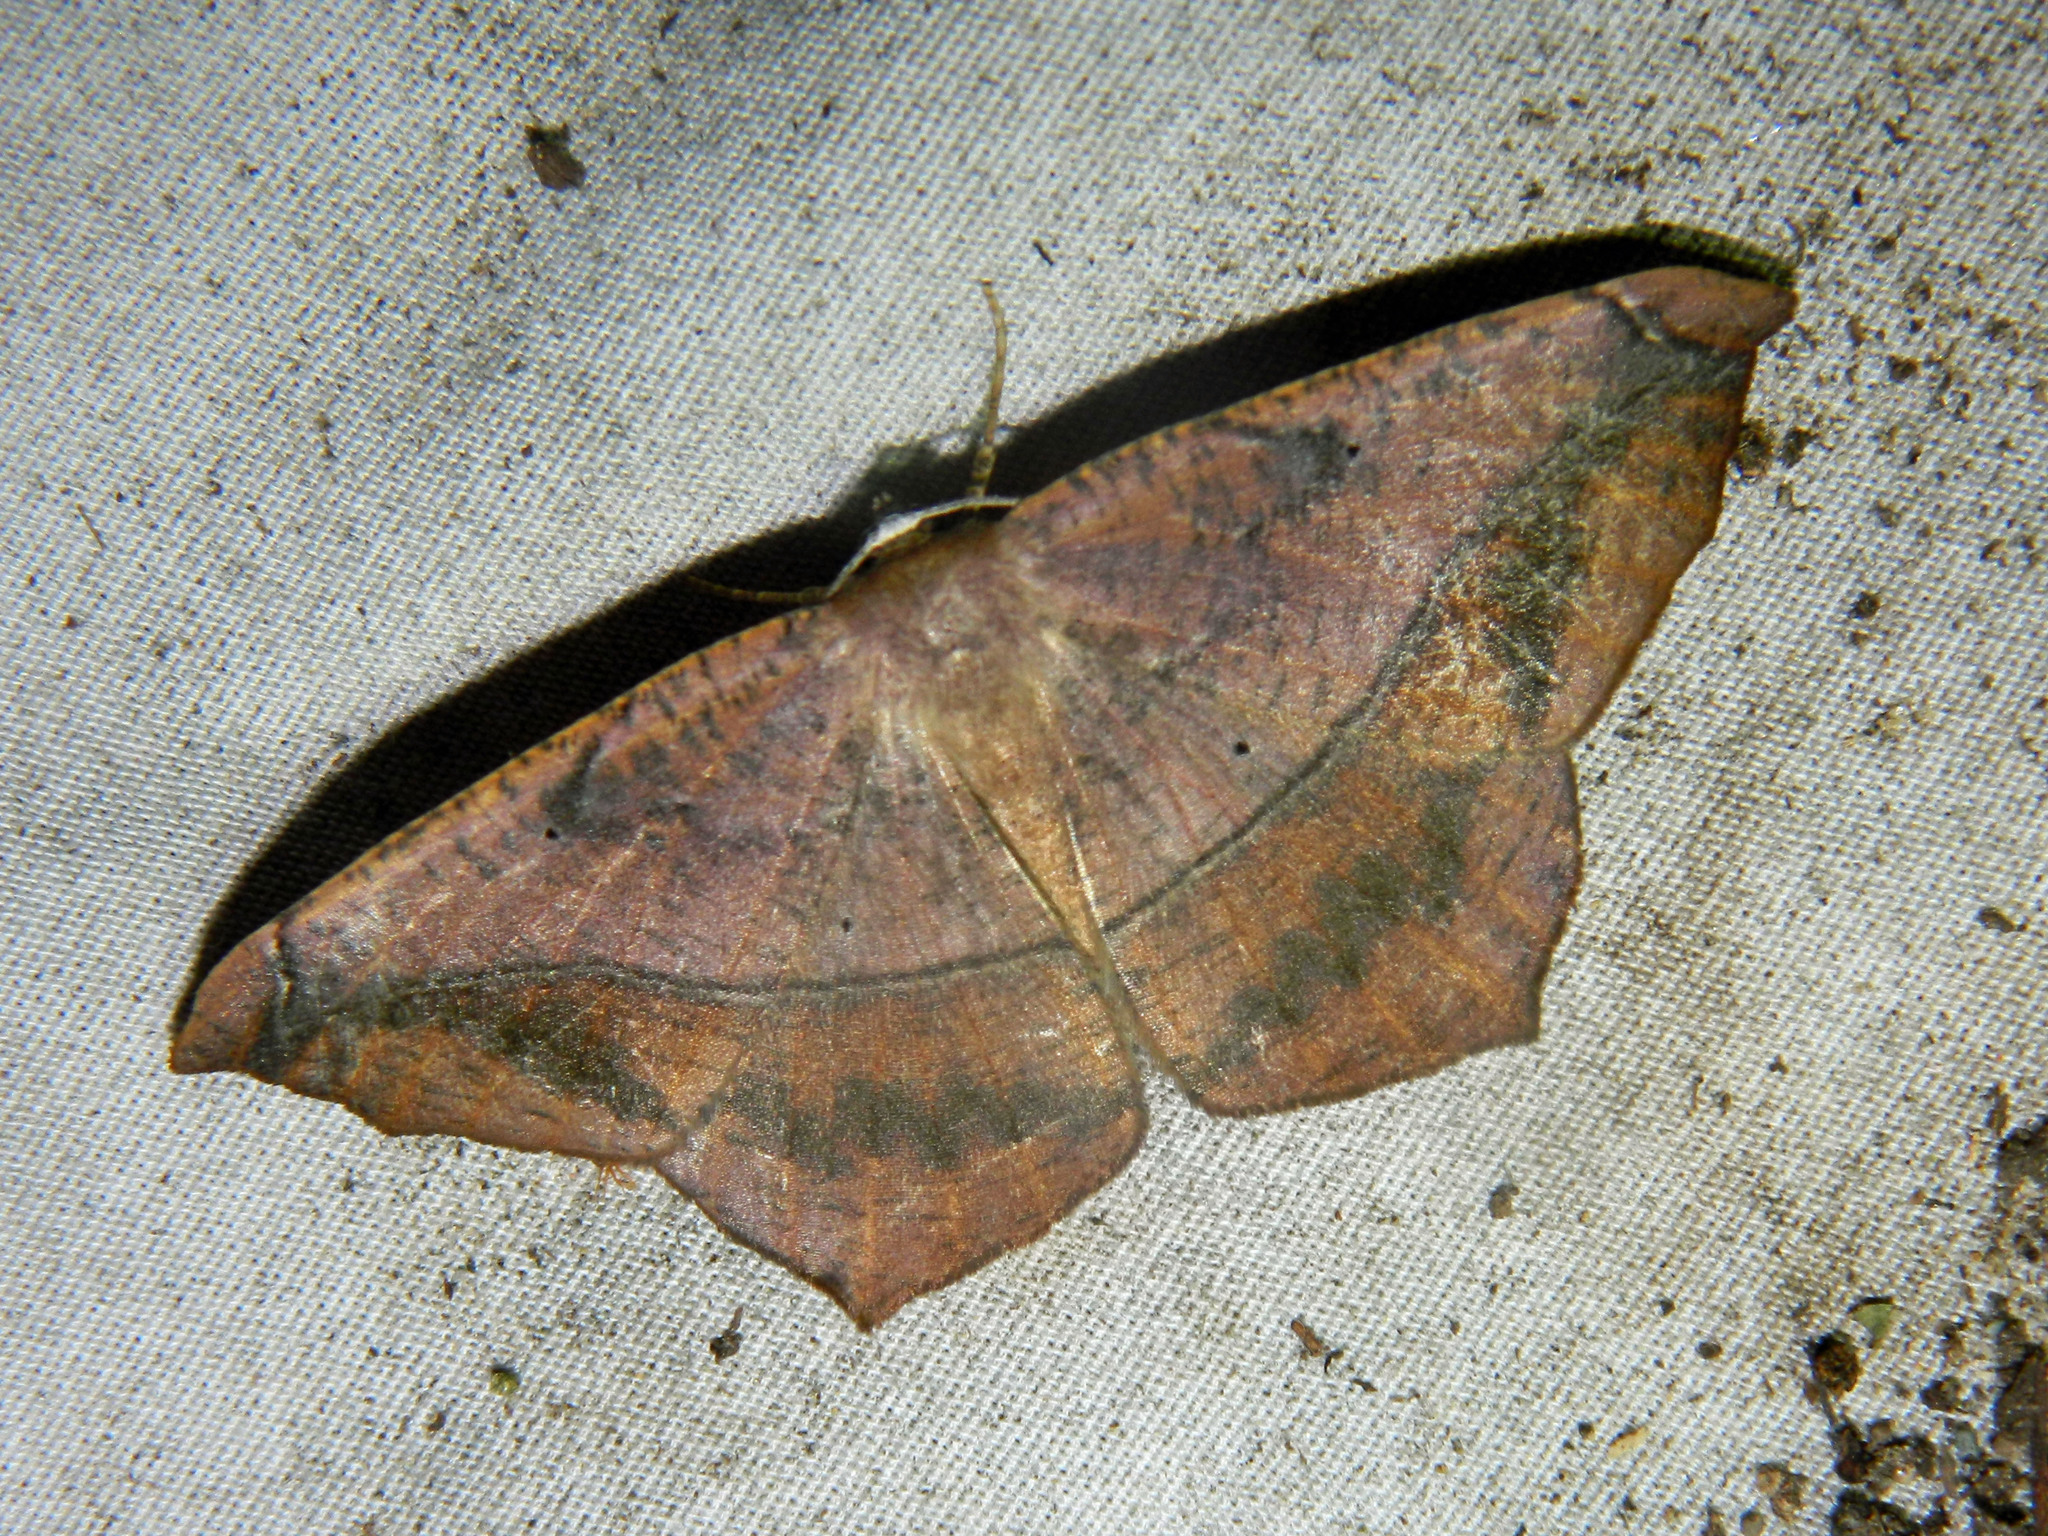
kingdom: Animalia
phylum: Arthropoda
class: Insecta
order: Lepidoptera
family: Geometridae
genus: Prochoerodes
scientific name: Prochoerodes lineola
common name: Large maple spanworm
